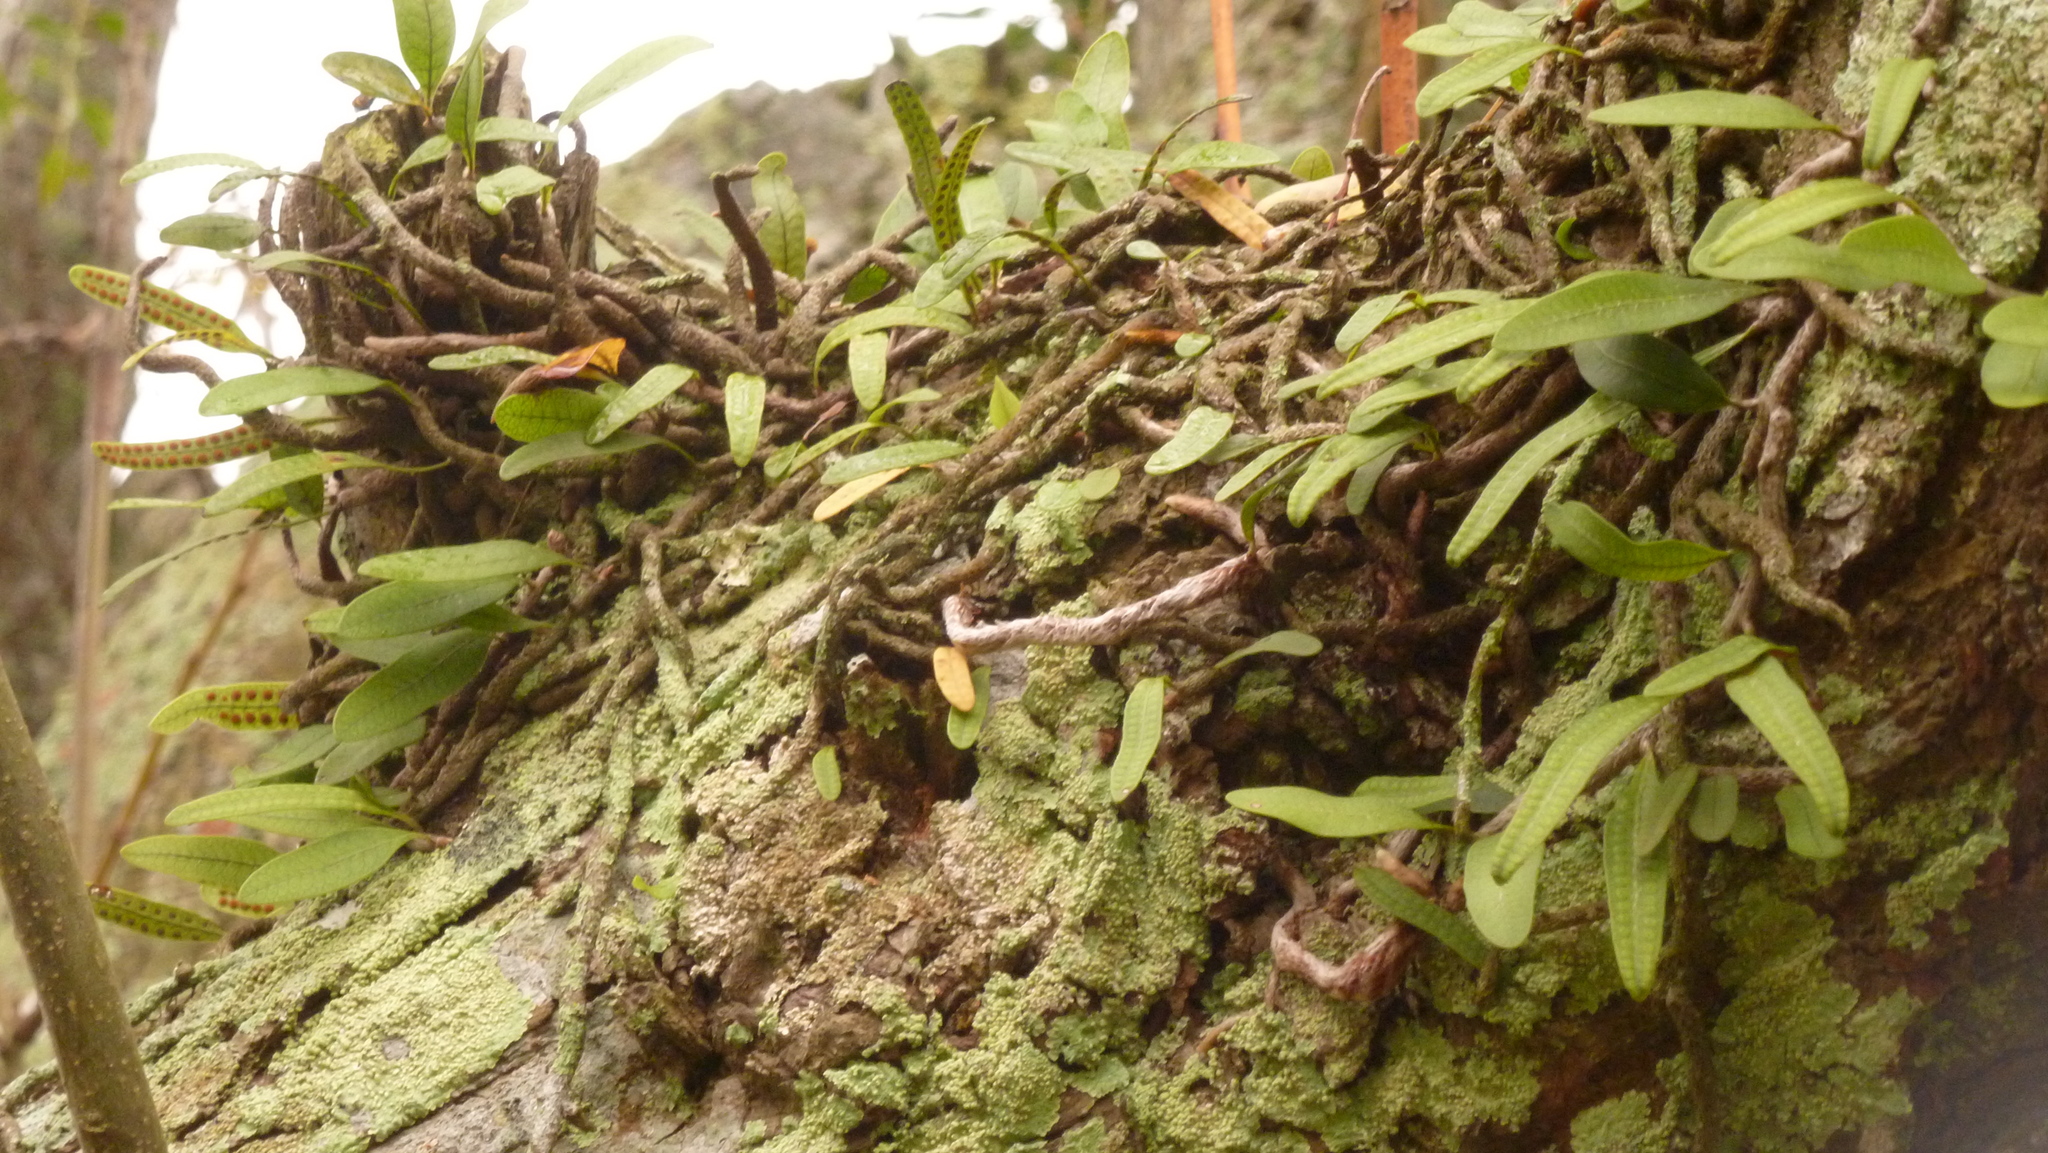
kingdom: Plantae
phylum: Tracheophyta
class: Polypodiopsida
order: Polypodiales
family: Polypodiaceae
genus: Microgramma
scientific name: Microgramma squamulosa
